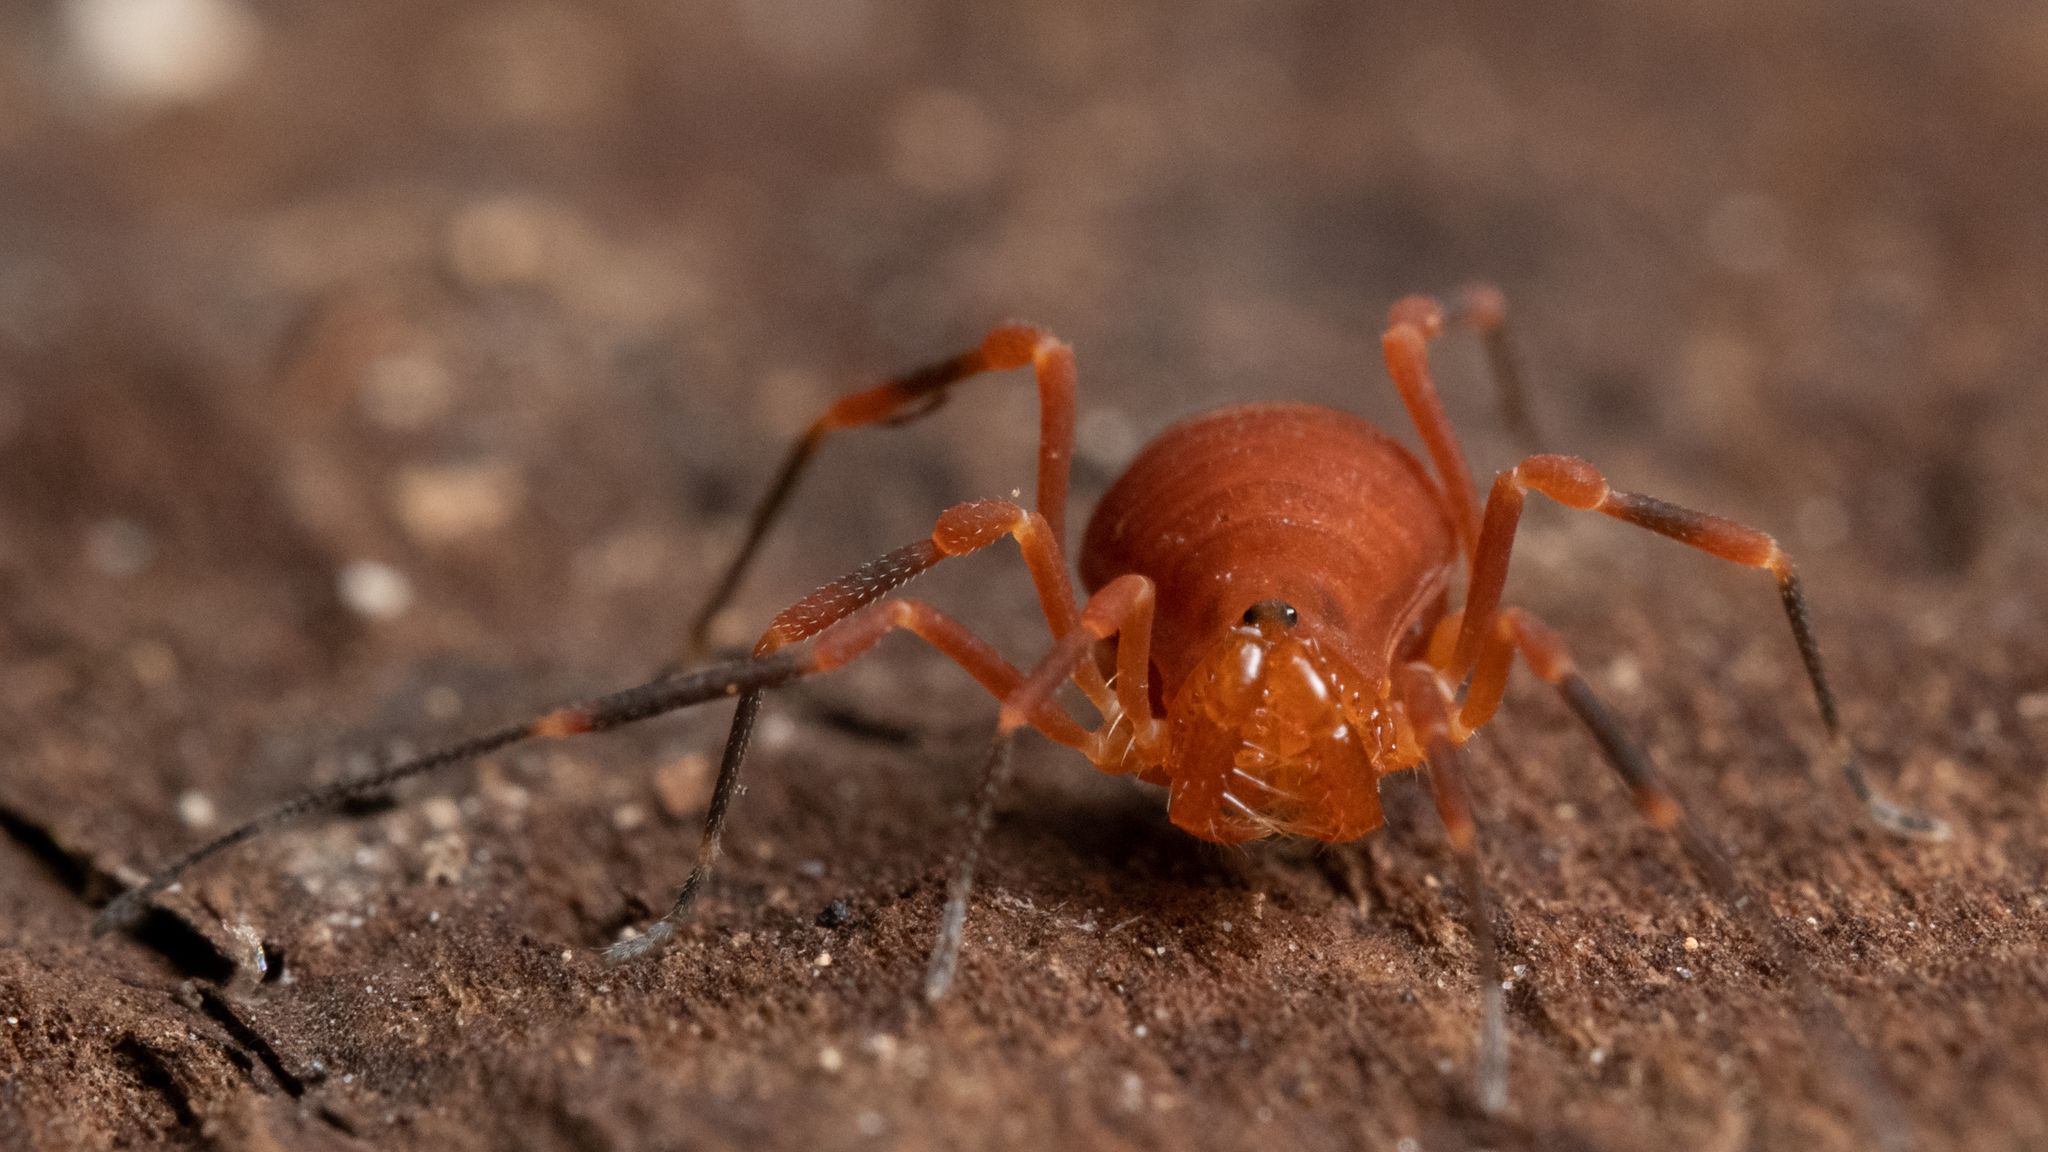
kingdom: Animalia
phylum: Arthropoda
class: Arachnida
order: Opiliones
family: Paranonychidae
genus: Sclerobunus
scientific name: Sclerobunus nondimorphicus
